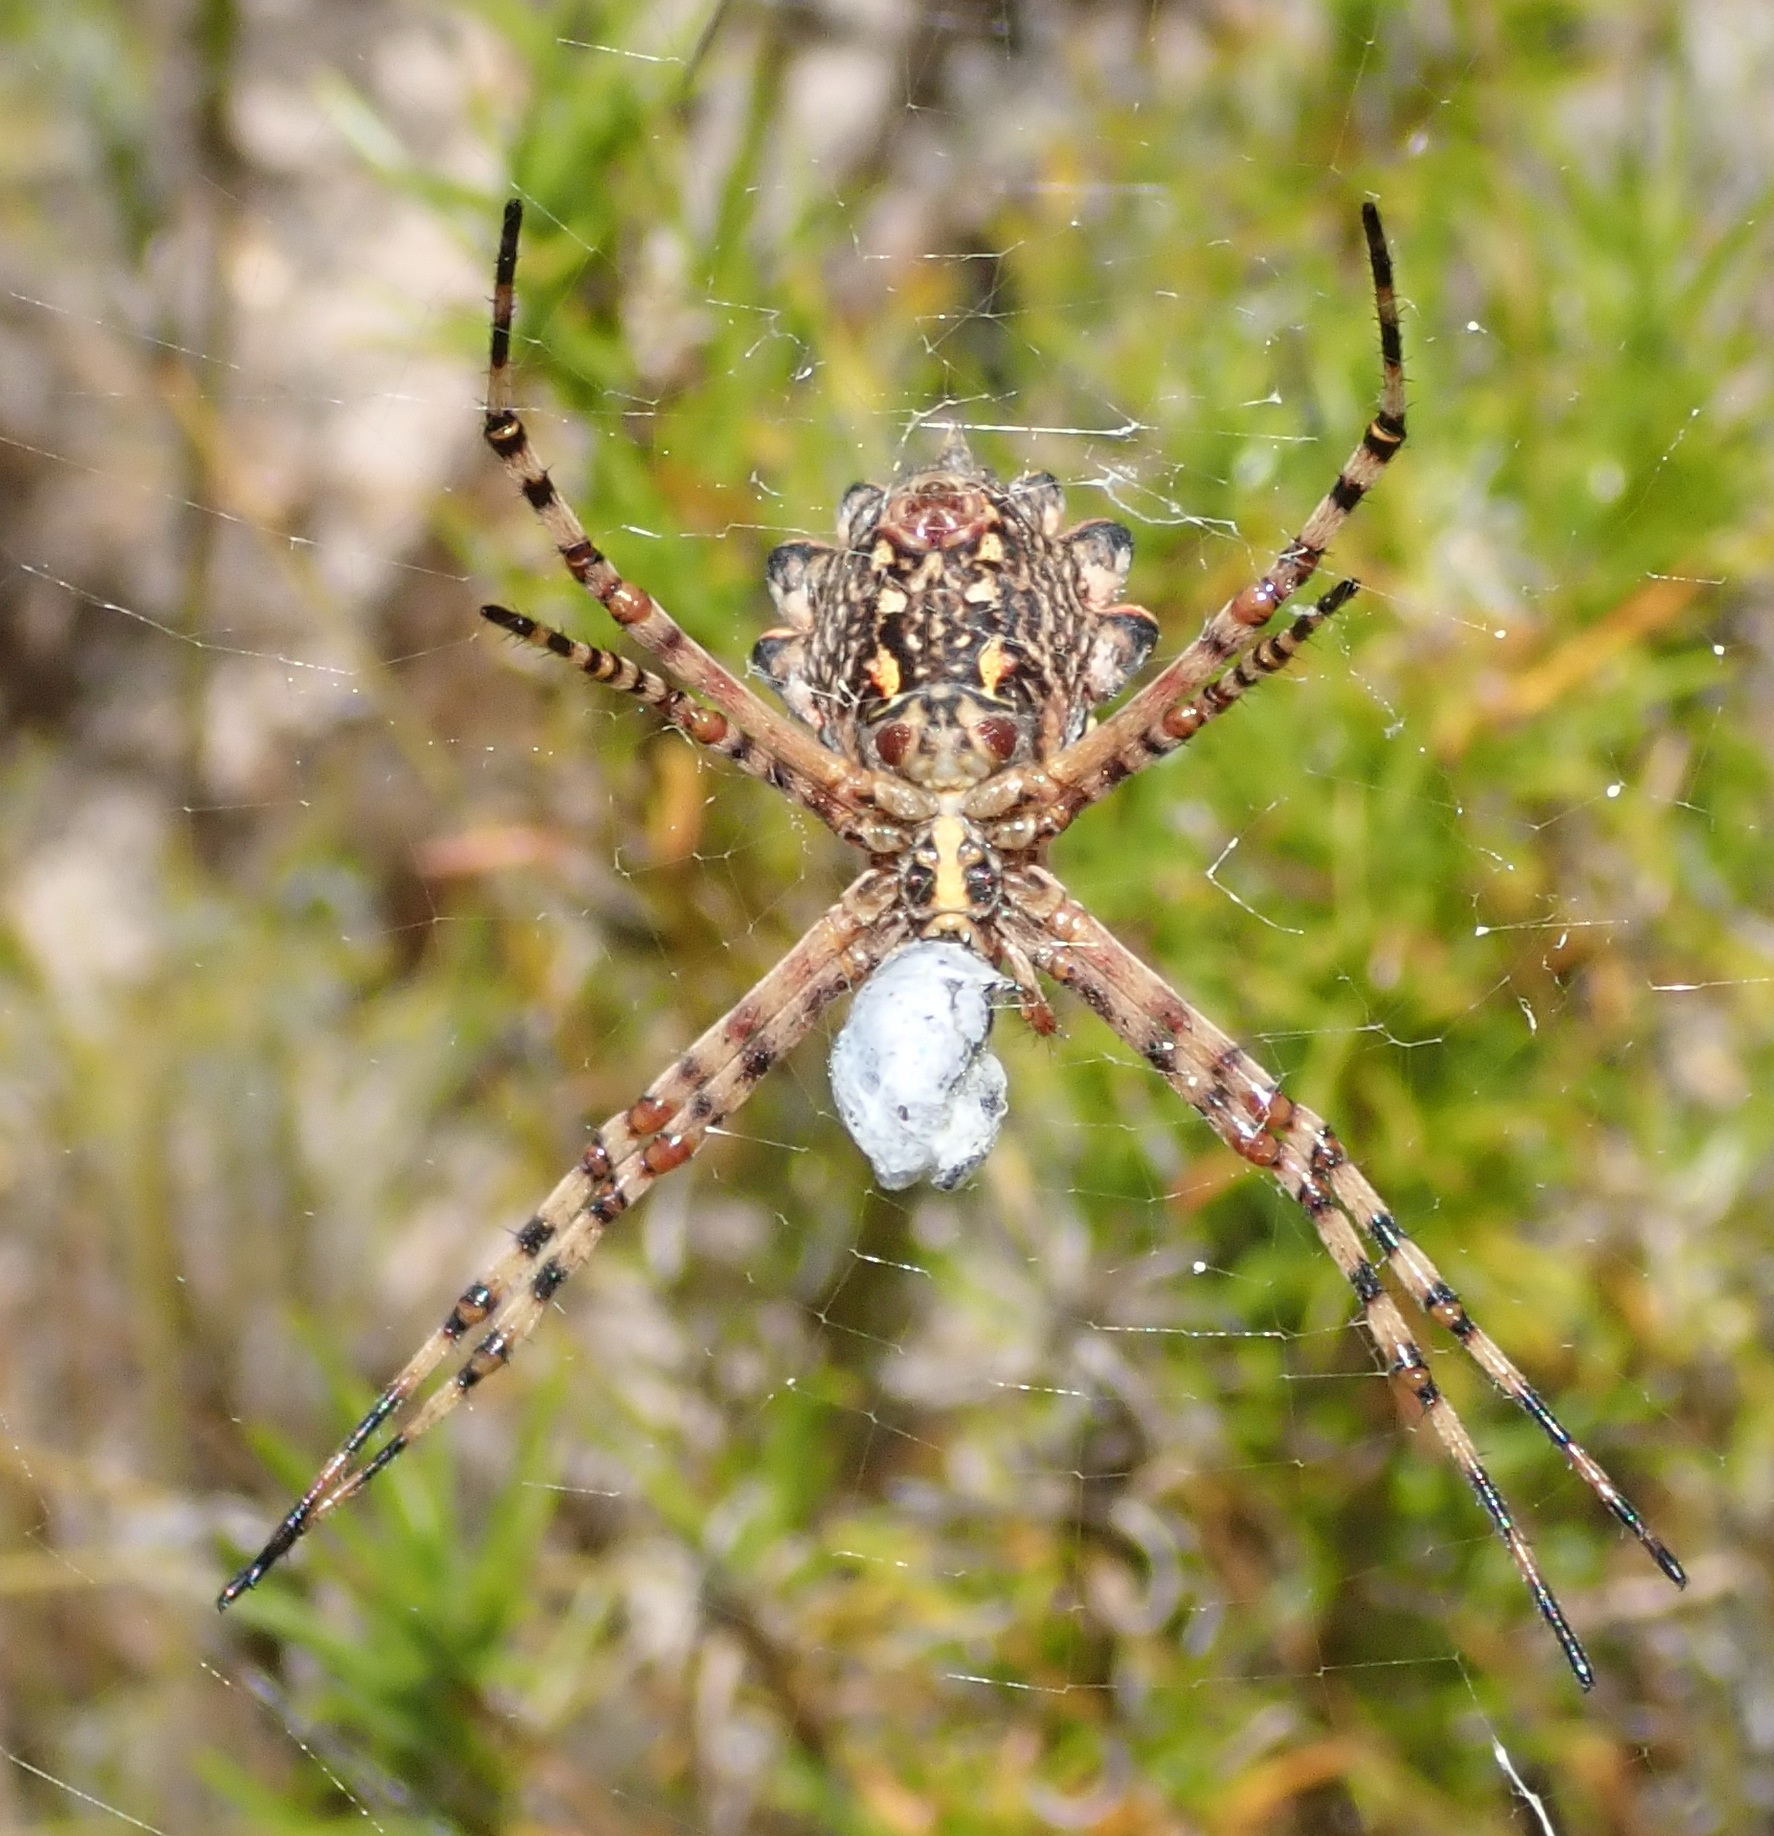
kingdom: Animalia
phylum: Arthropoda
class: Arachnida
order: Araneae
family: Araneidae
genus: Argiope
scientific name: Argiope australis
